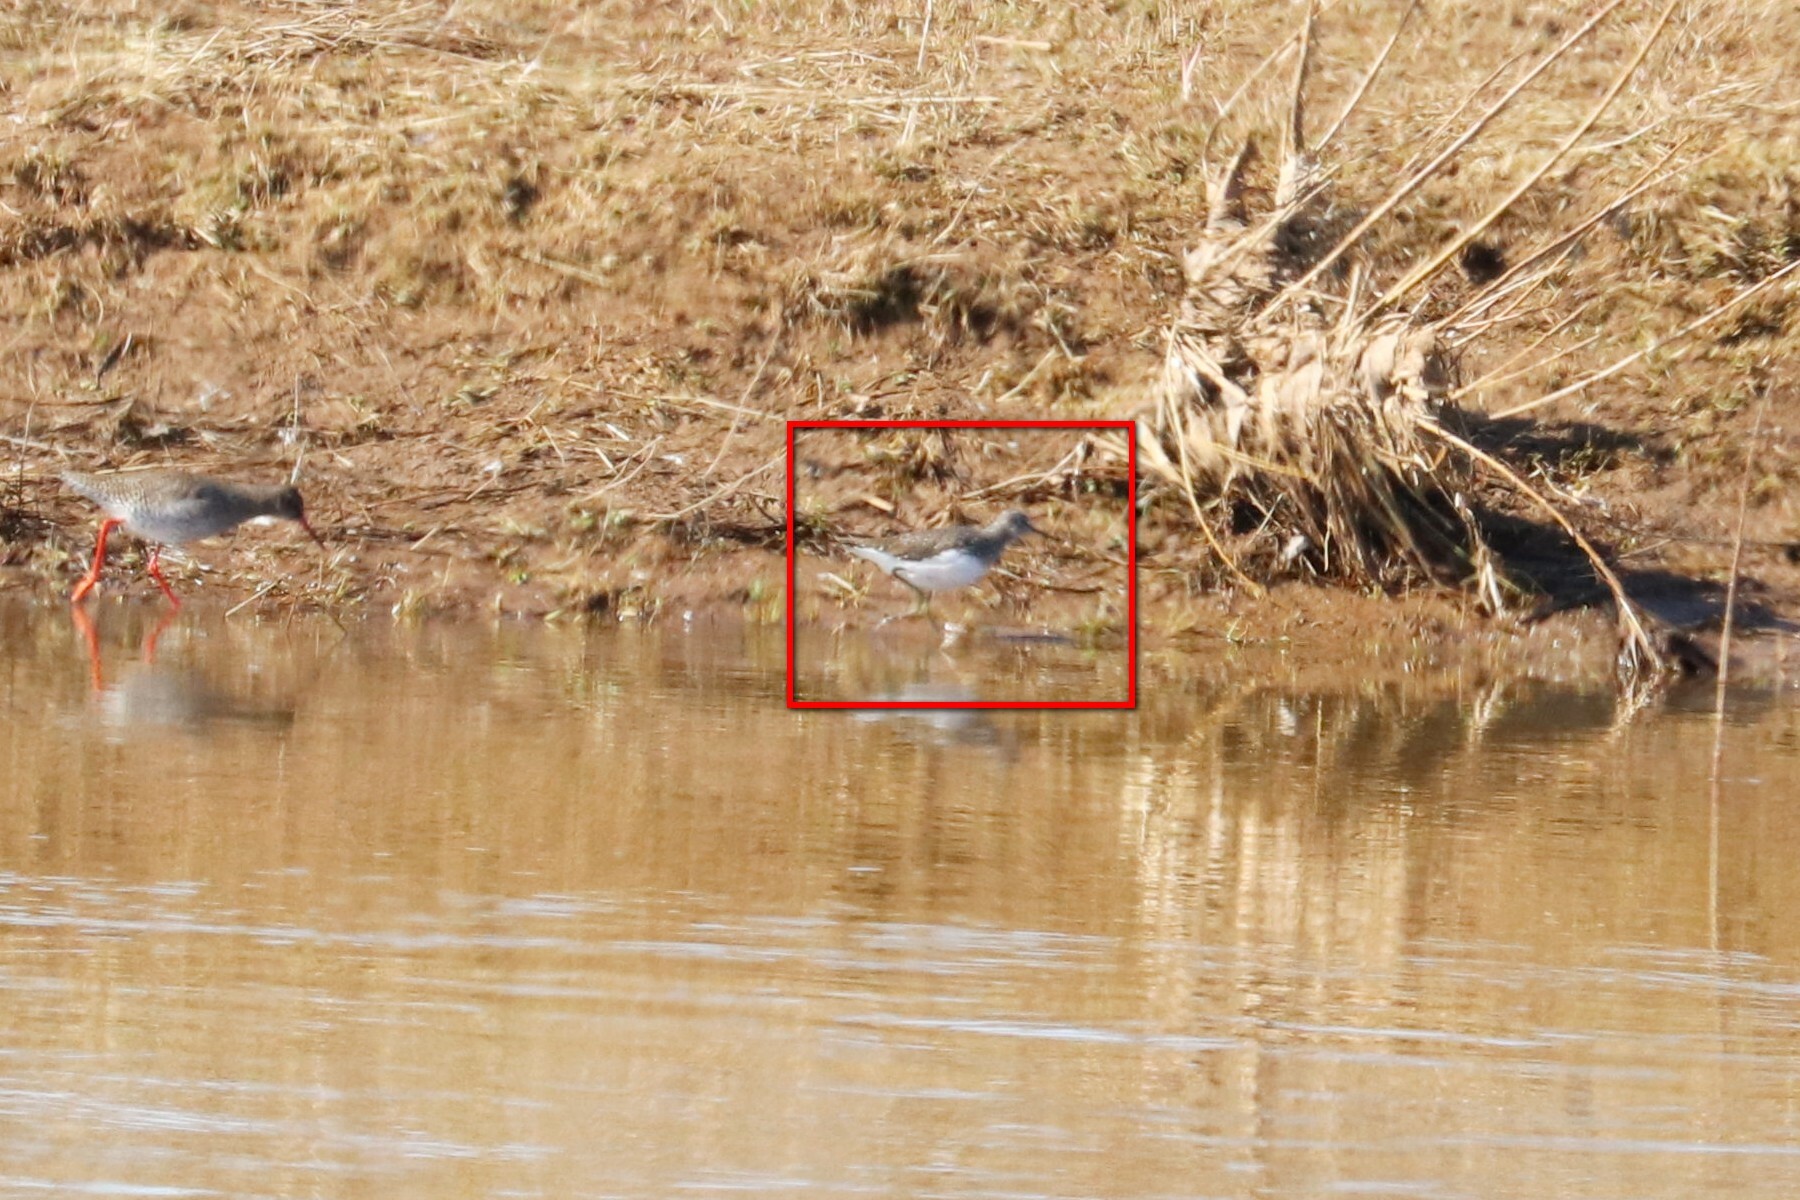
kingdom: Animalia
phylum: Chordata
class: Aves
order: Charadriiformes
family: Scolopacidae
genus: Tringa
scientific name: Tringa ochropus
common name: Green sandpiper
